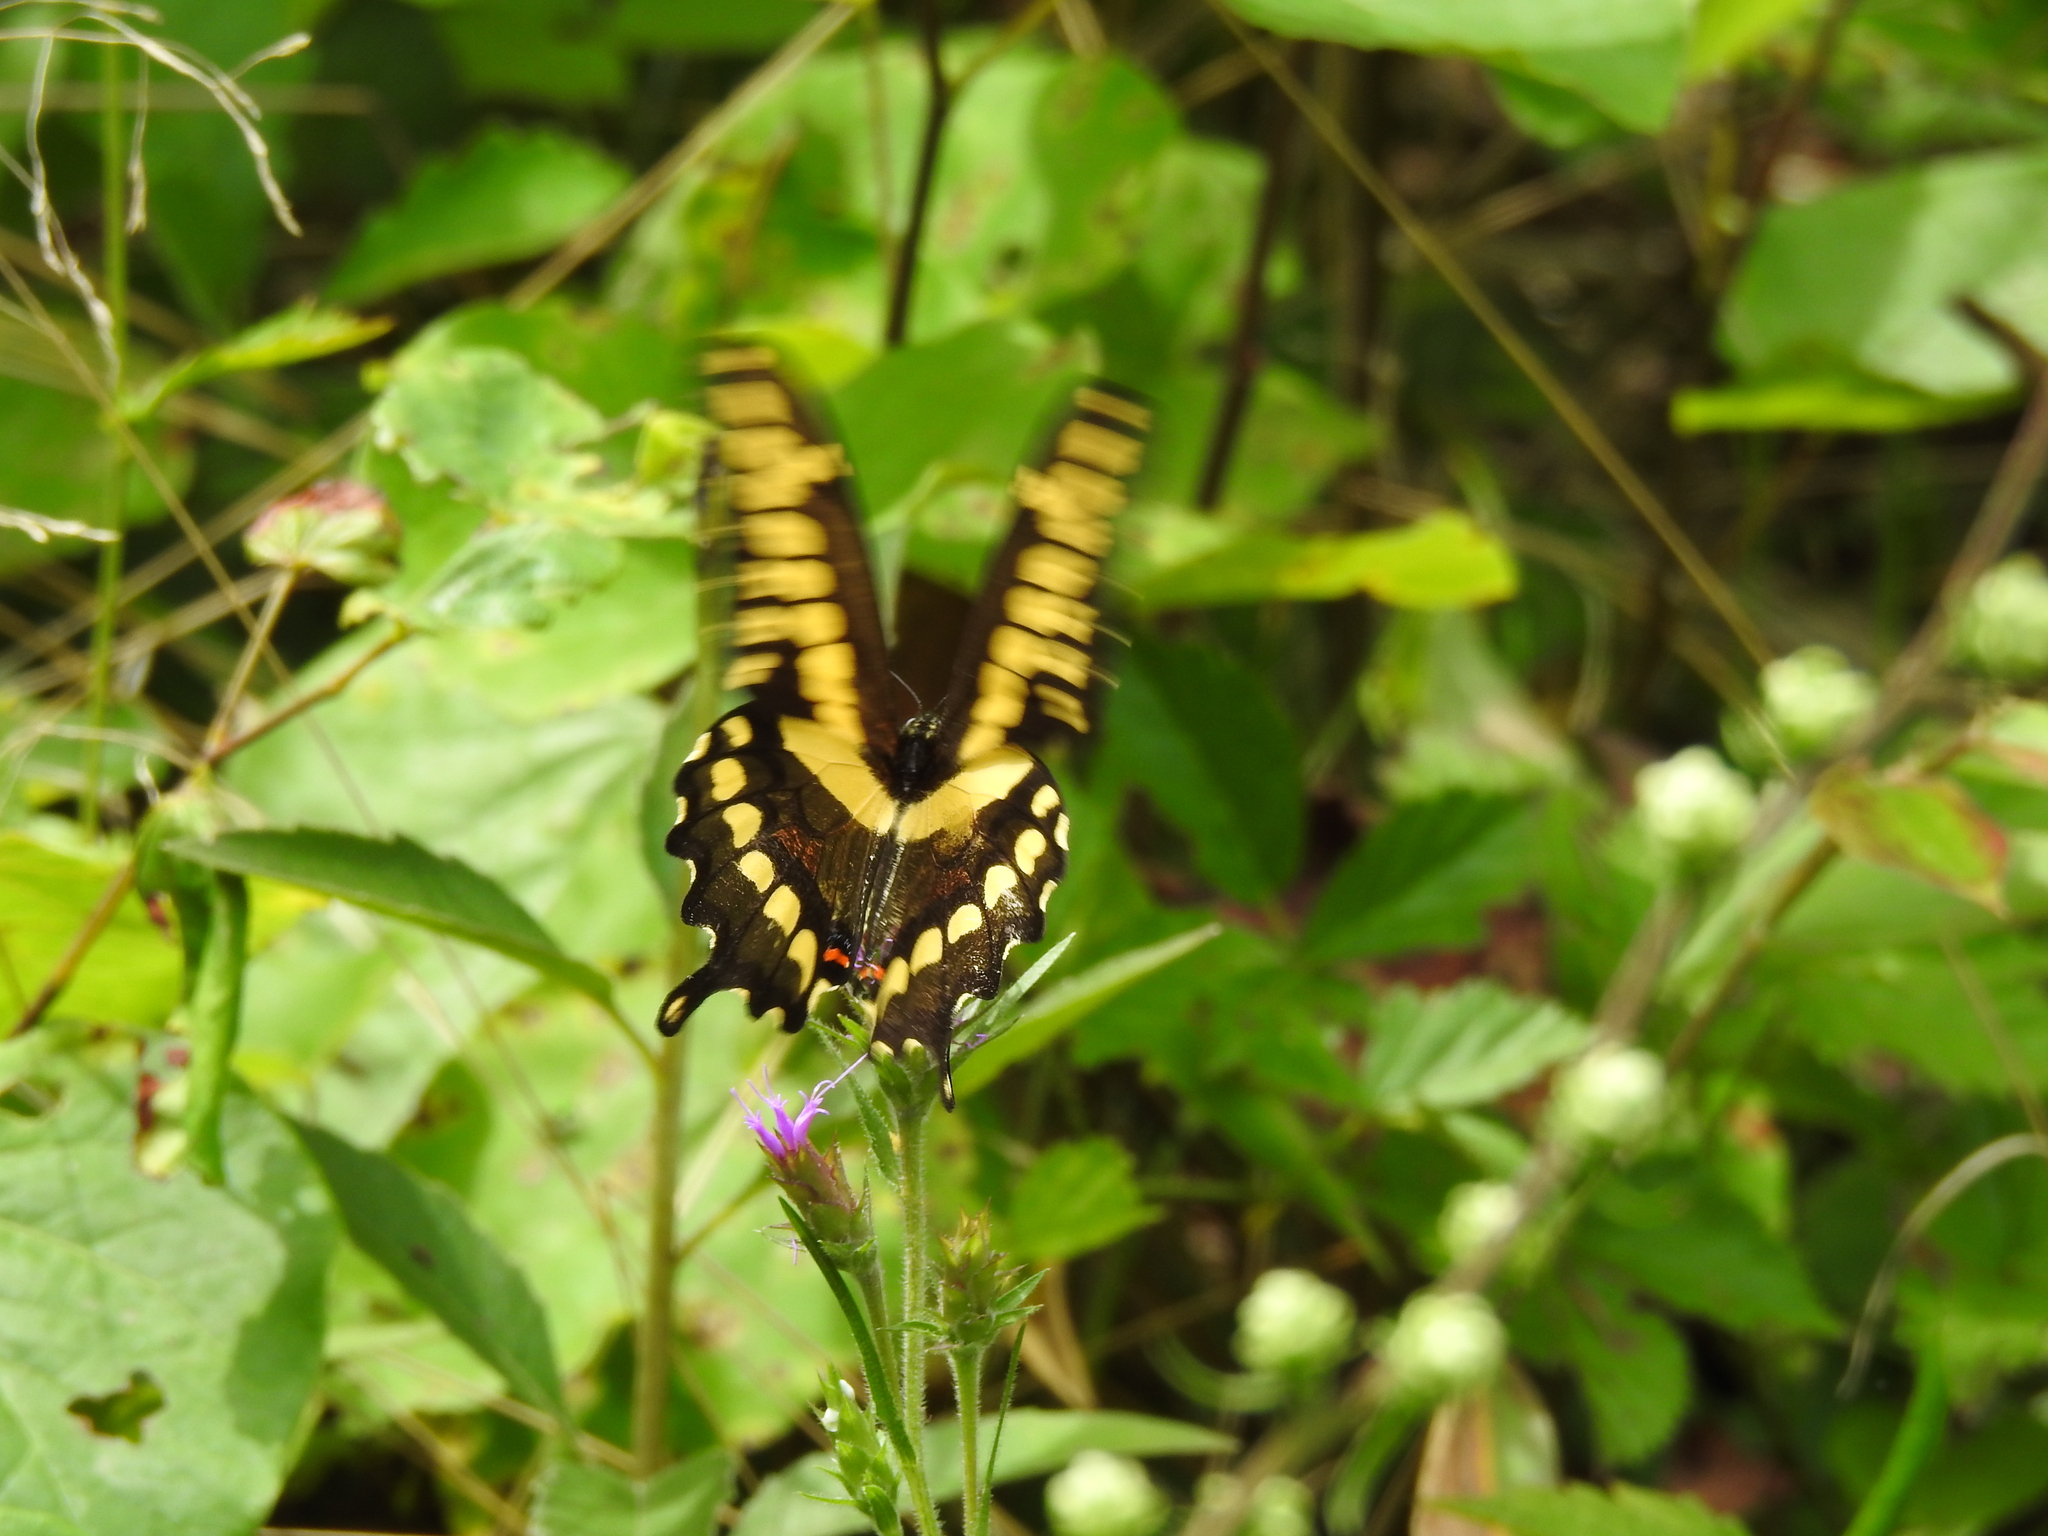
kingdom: Animalia
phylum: Arthropoda
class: Insecta
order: Lepidoptera
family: Papilionidae
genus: Papilio
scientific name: Papilio cresphontes
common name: Giant swallowtail
